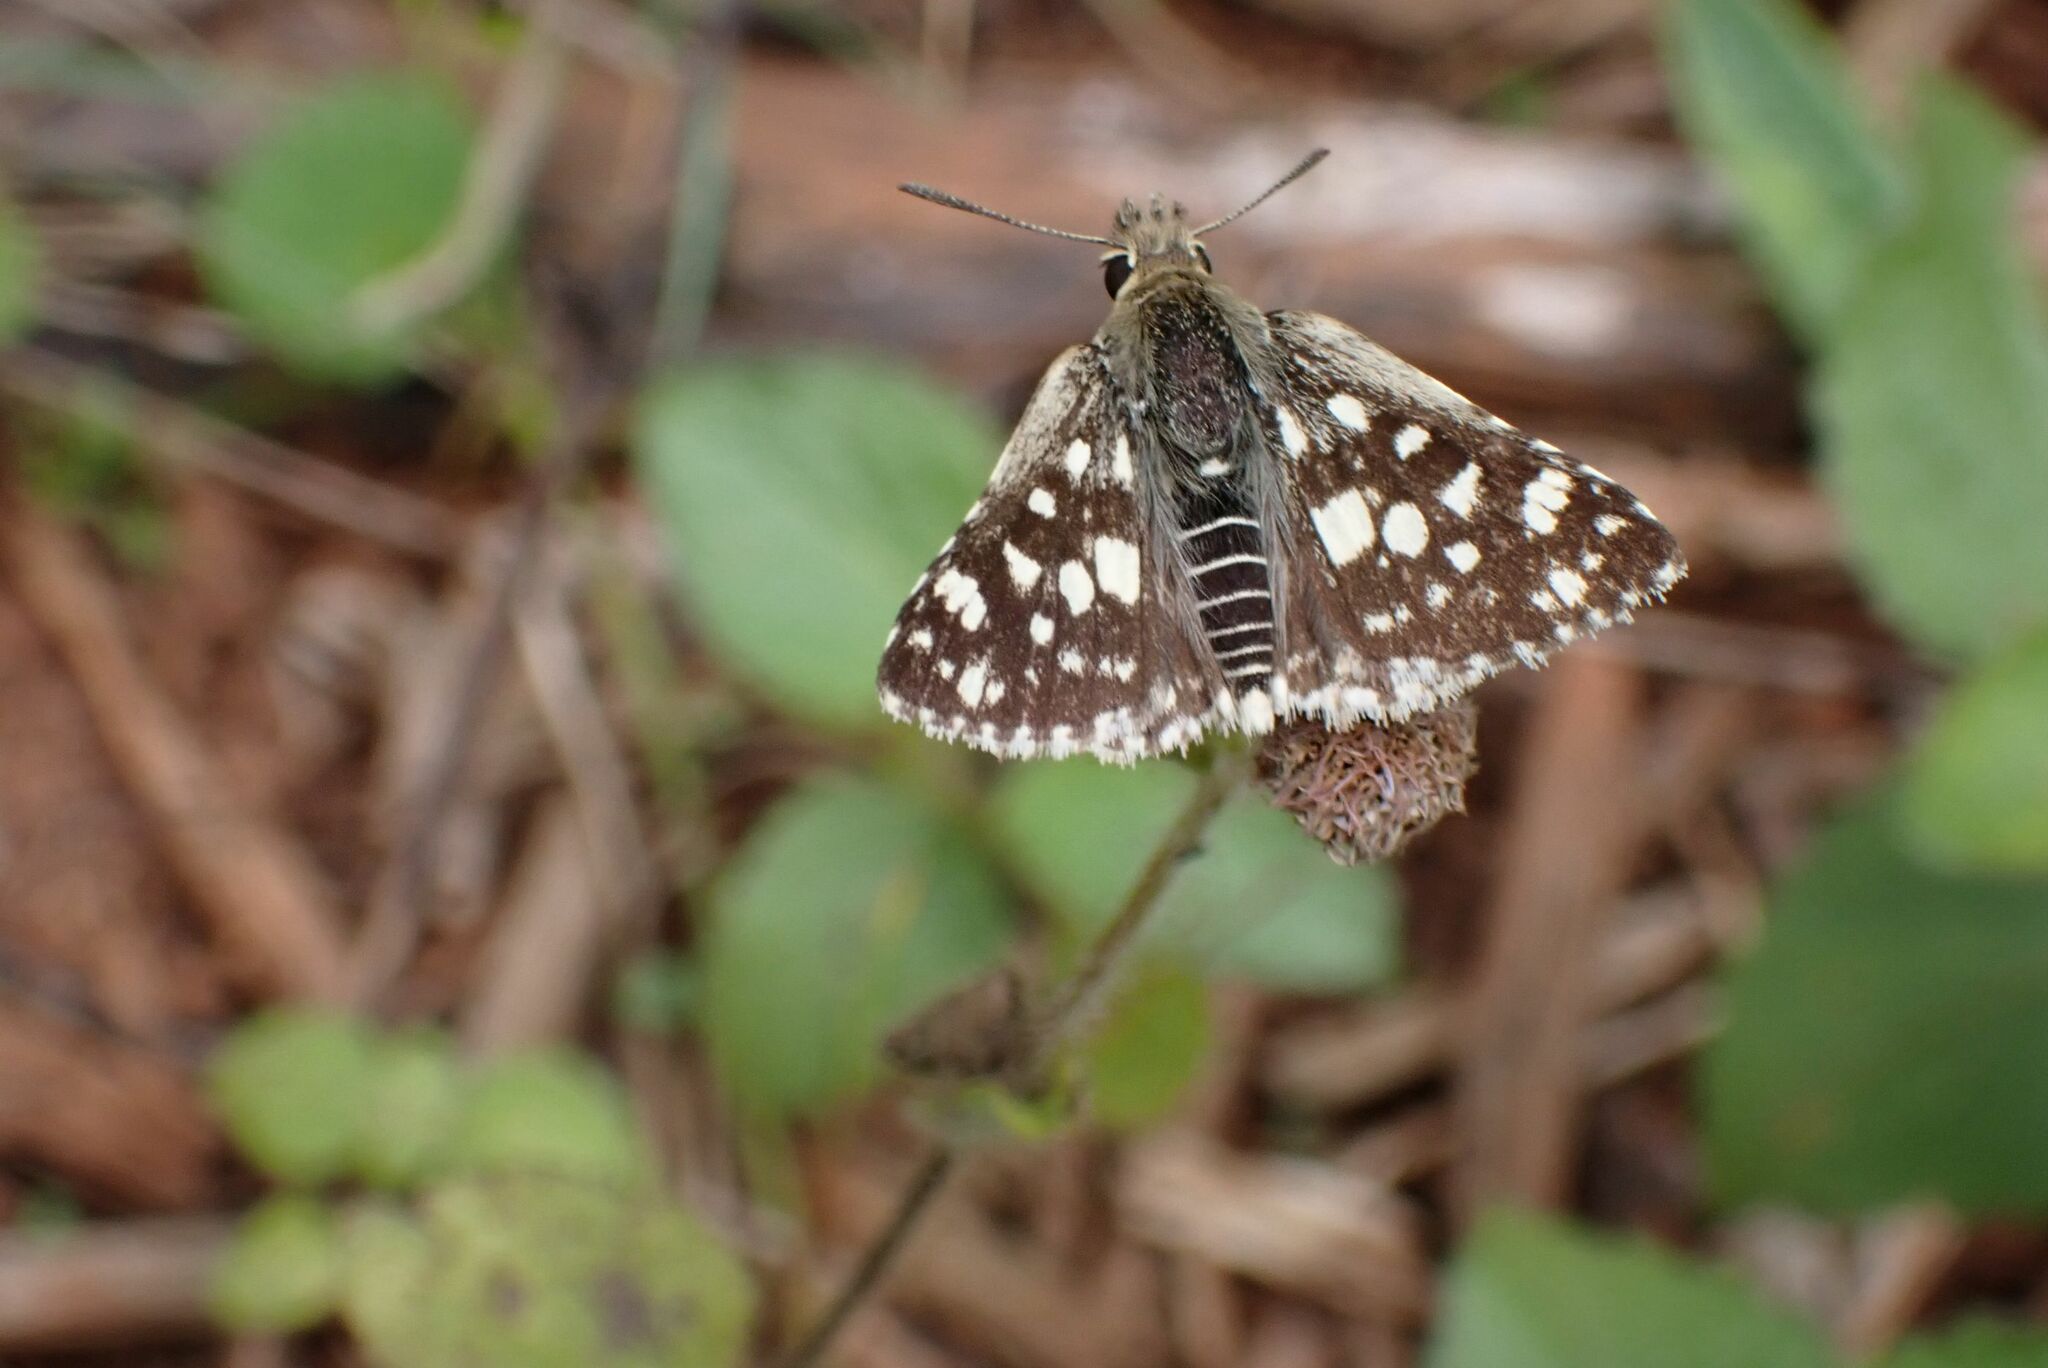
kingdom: Animalia
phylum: Arthropoda
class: Insecta
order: Lepidoptera
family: Hesperiidae
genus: Ernsta
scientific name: Ernsta
